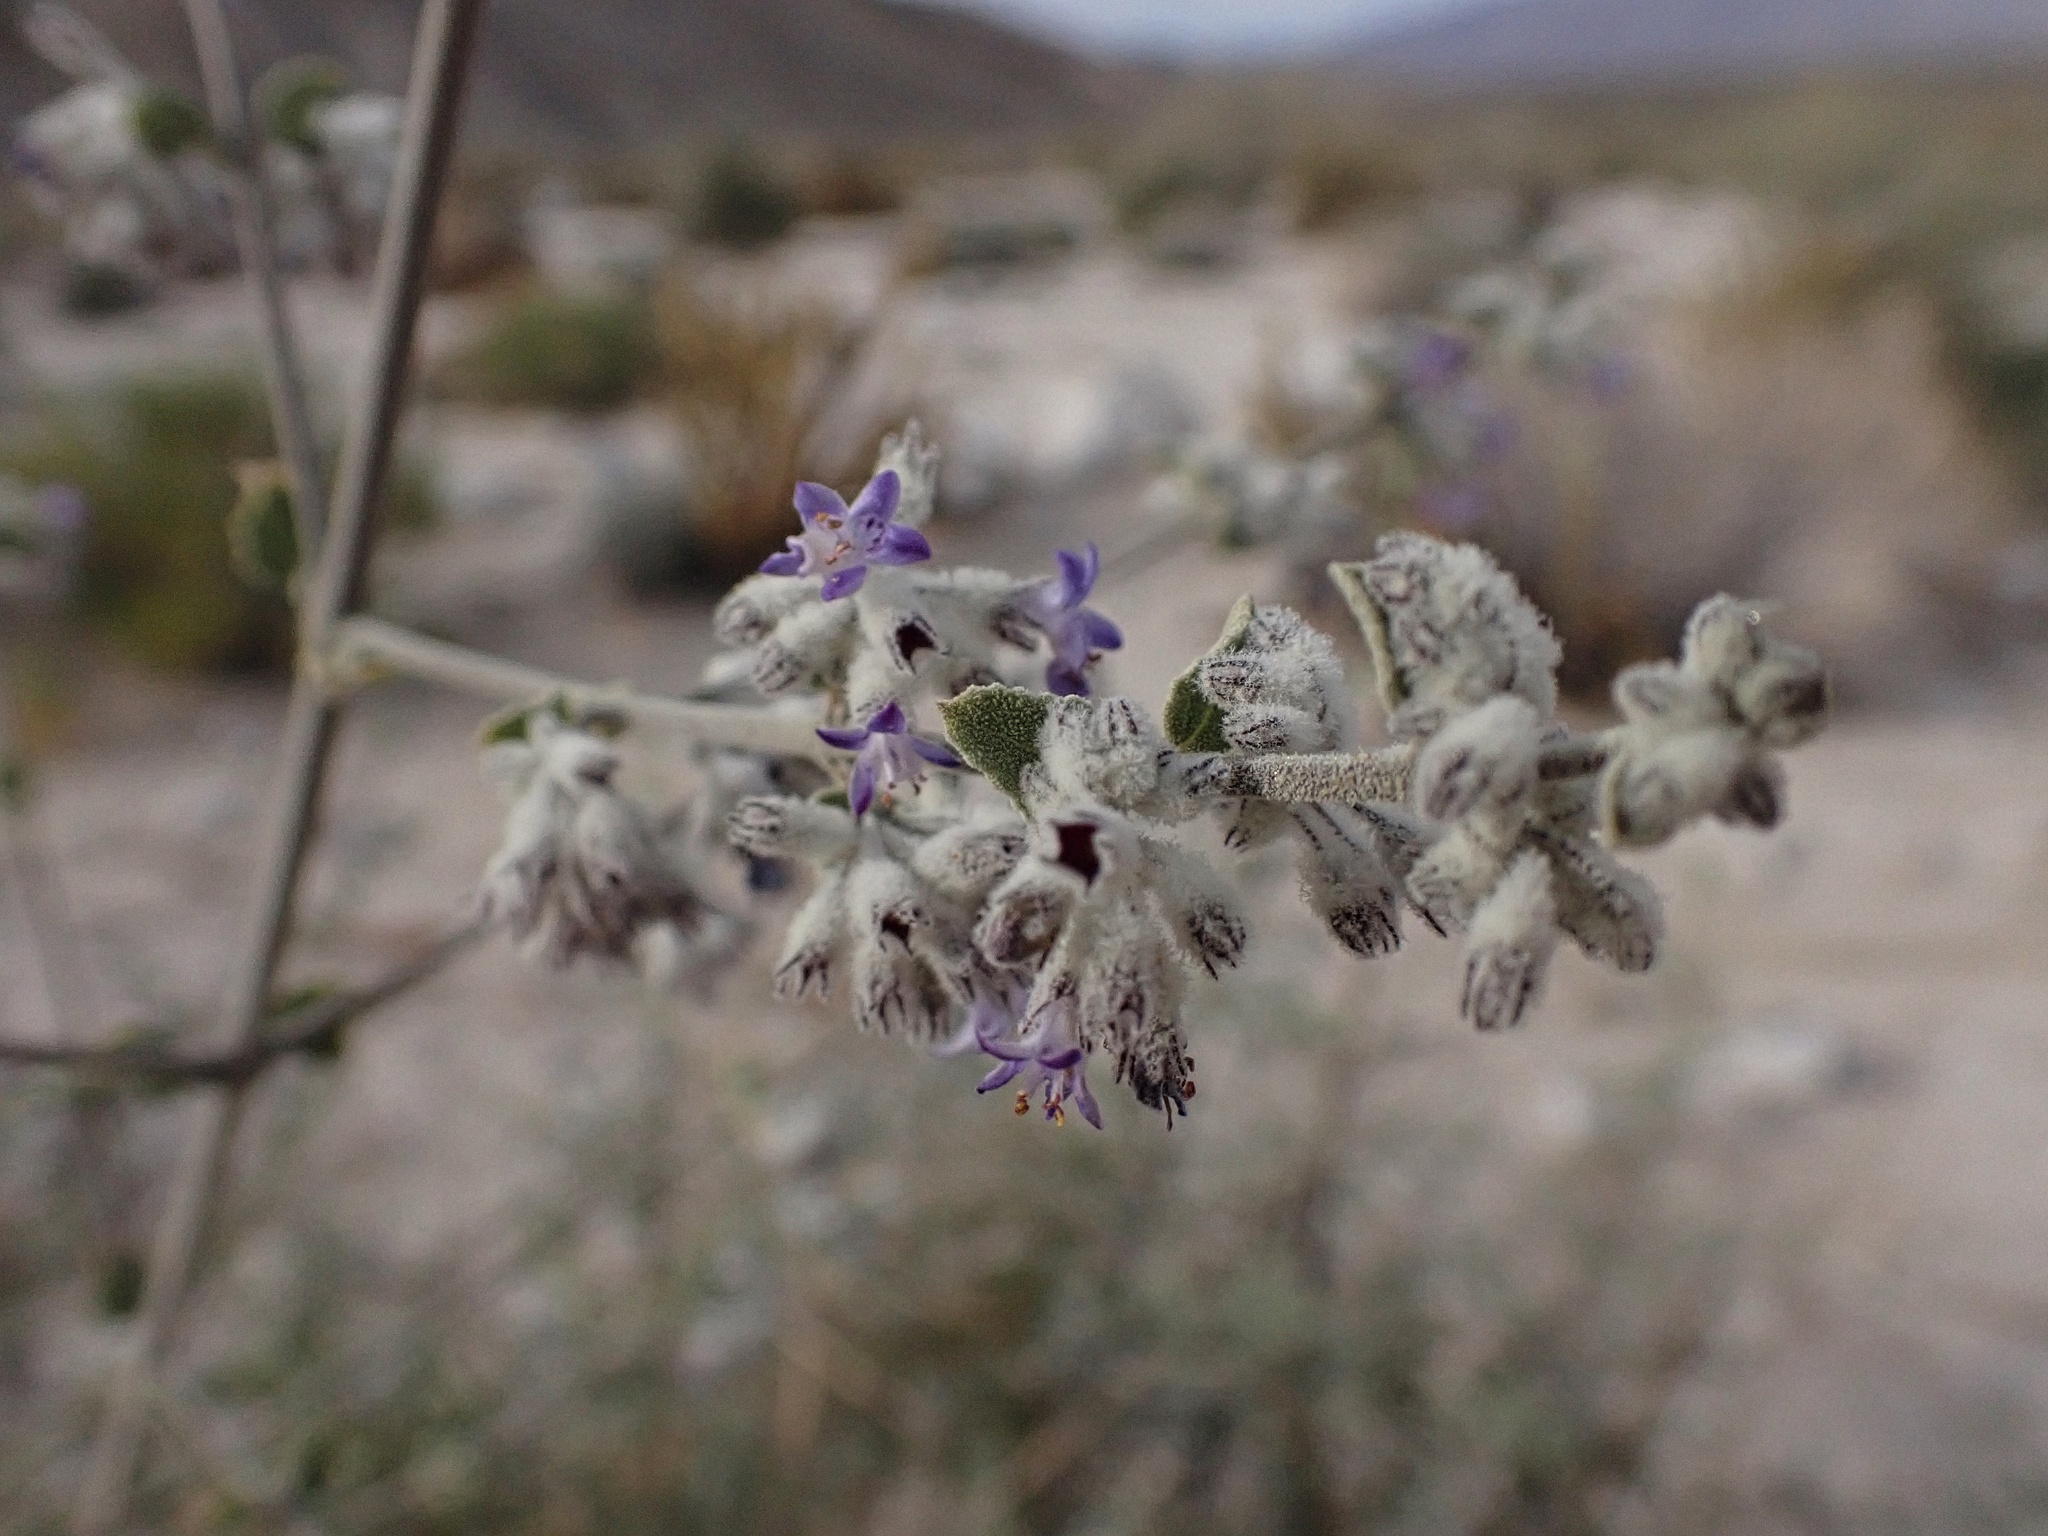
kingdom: Plantae
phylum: Tracheophyta
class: Magnoliopsida
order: Lamiales
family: Lamiaceae
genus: Condea
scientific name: Condea emoryi
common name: Chia
